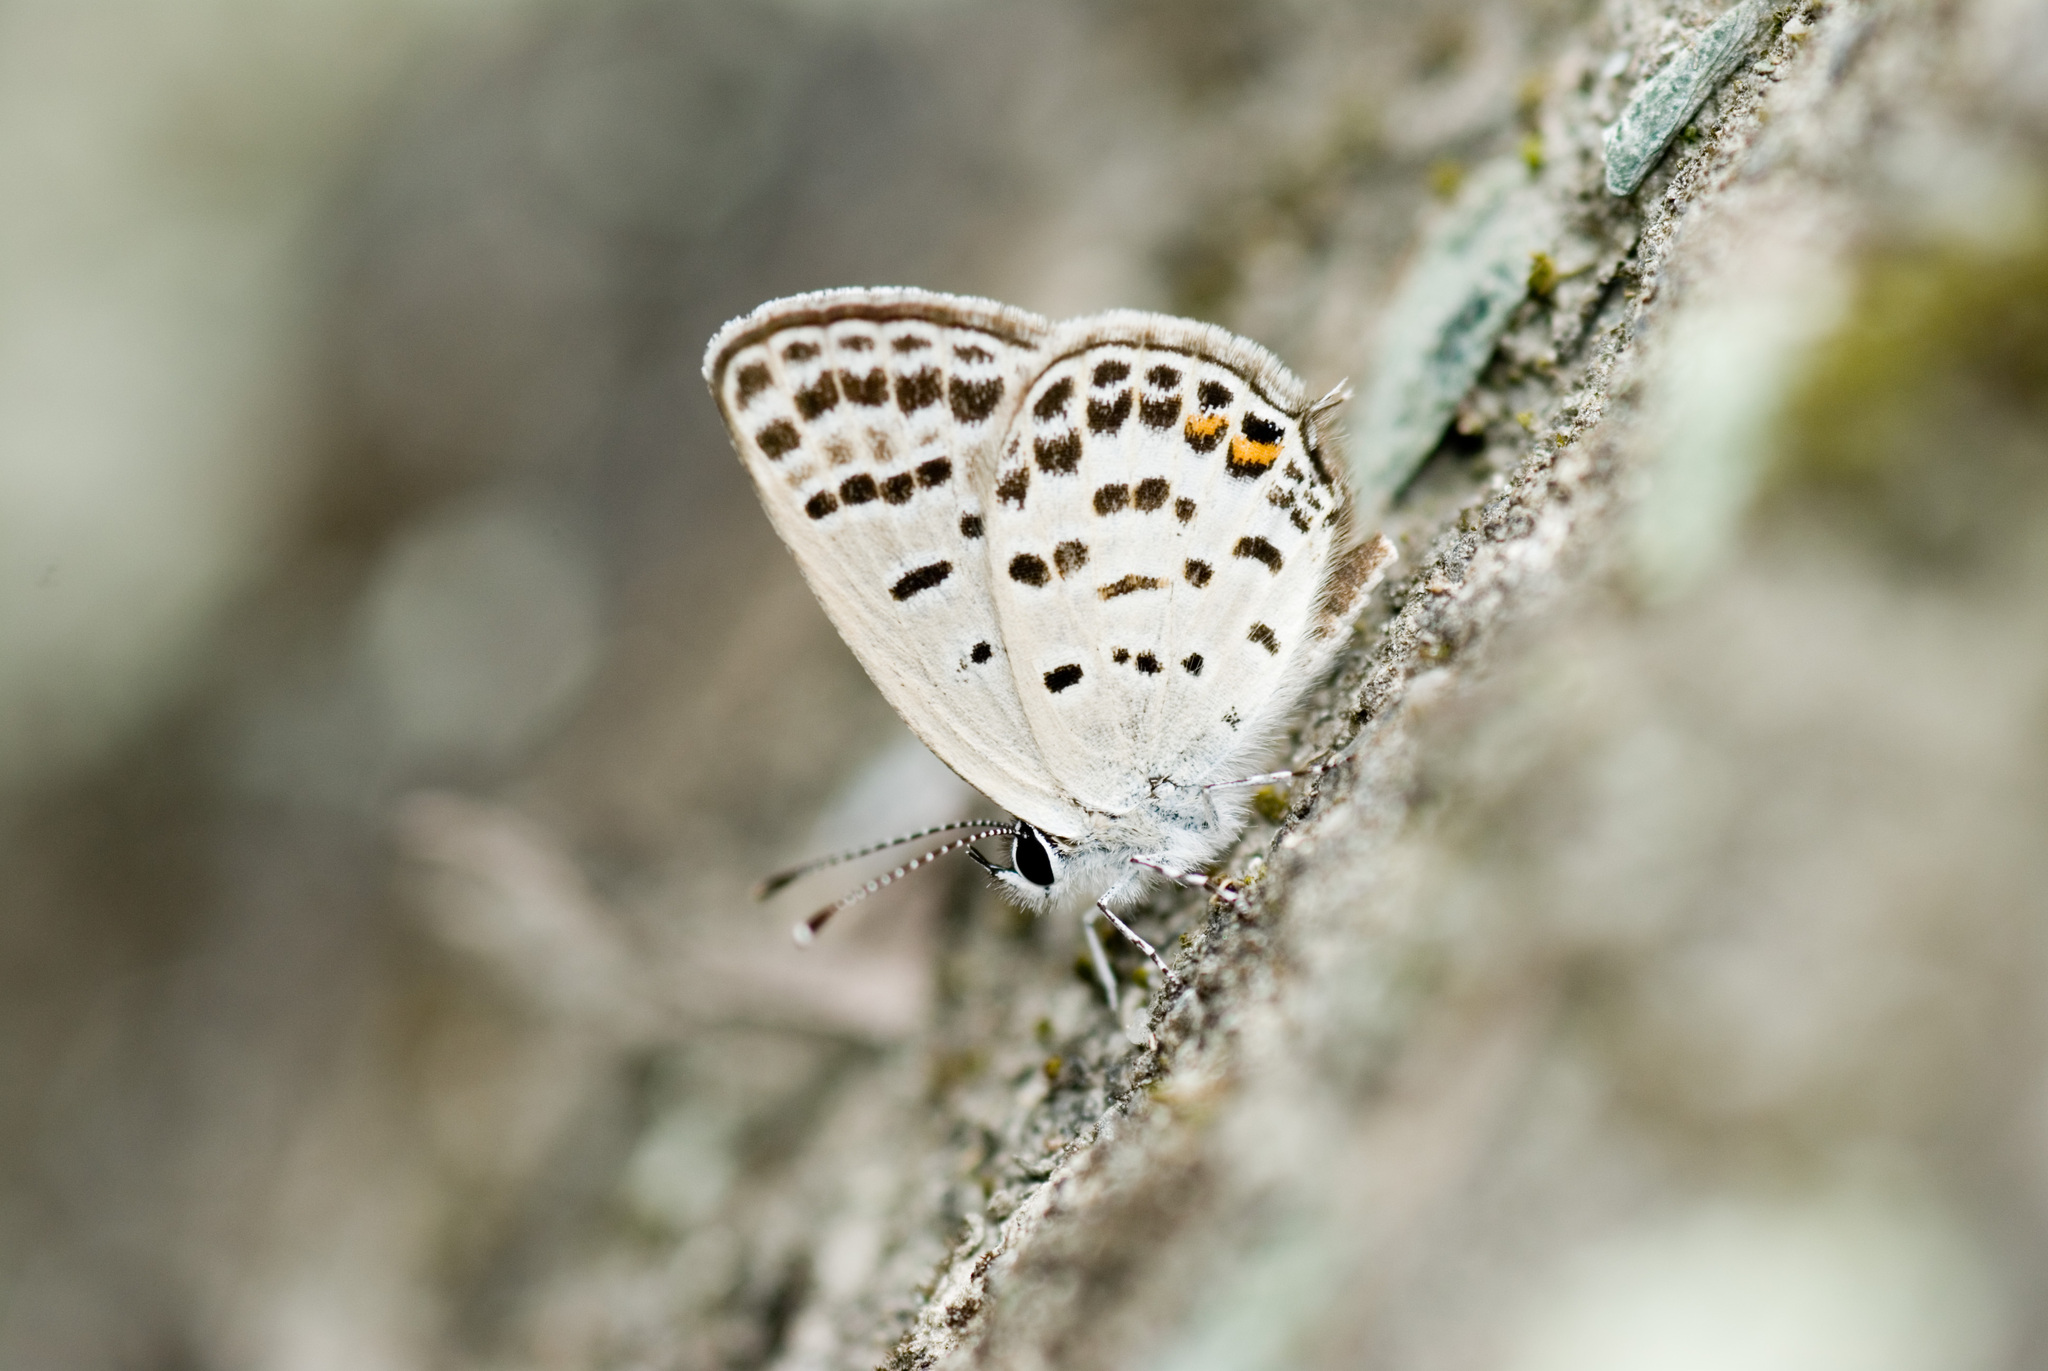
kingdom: Animalia
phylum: Arthropoda
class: Insecta
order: Lepidoptera
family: Lycaenidae
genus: Tongeia
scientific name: Tongeia filicaudis
